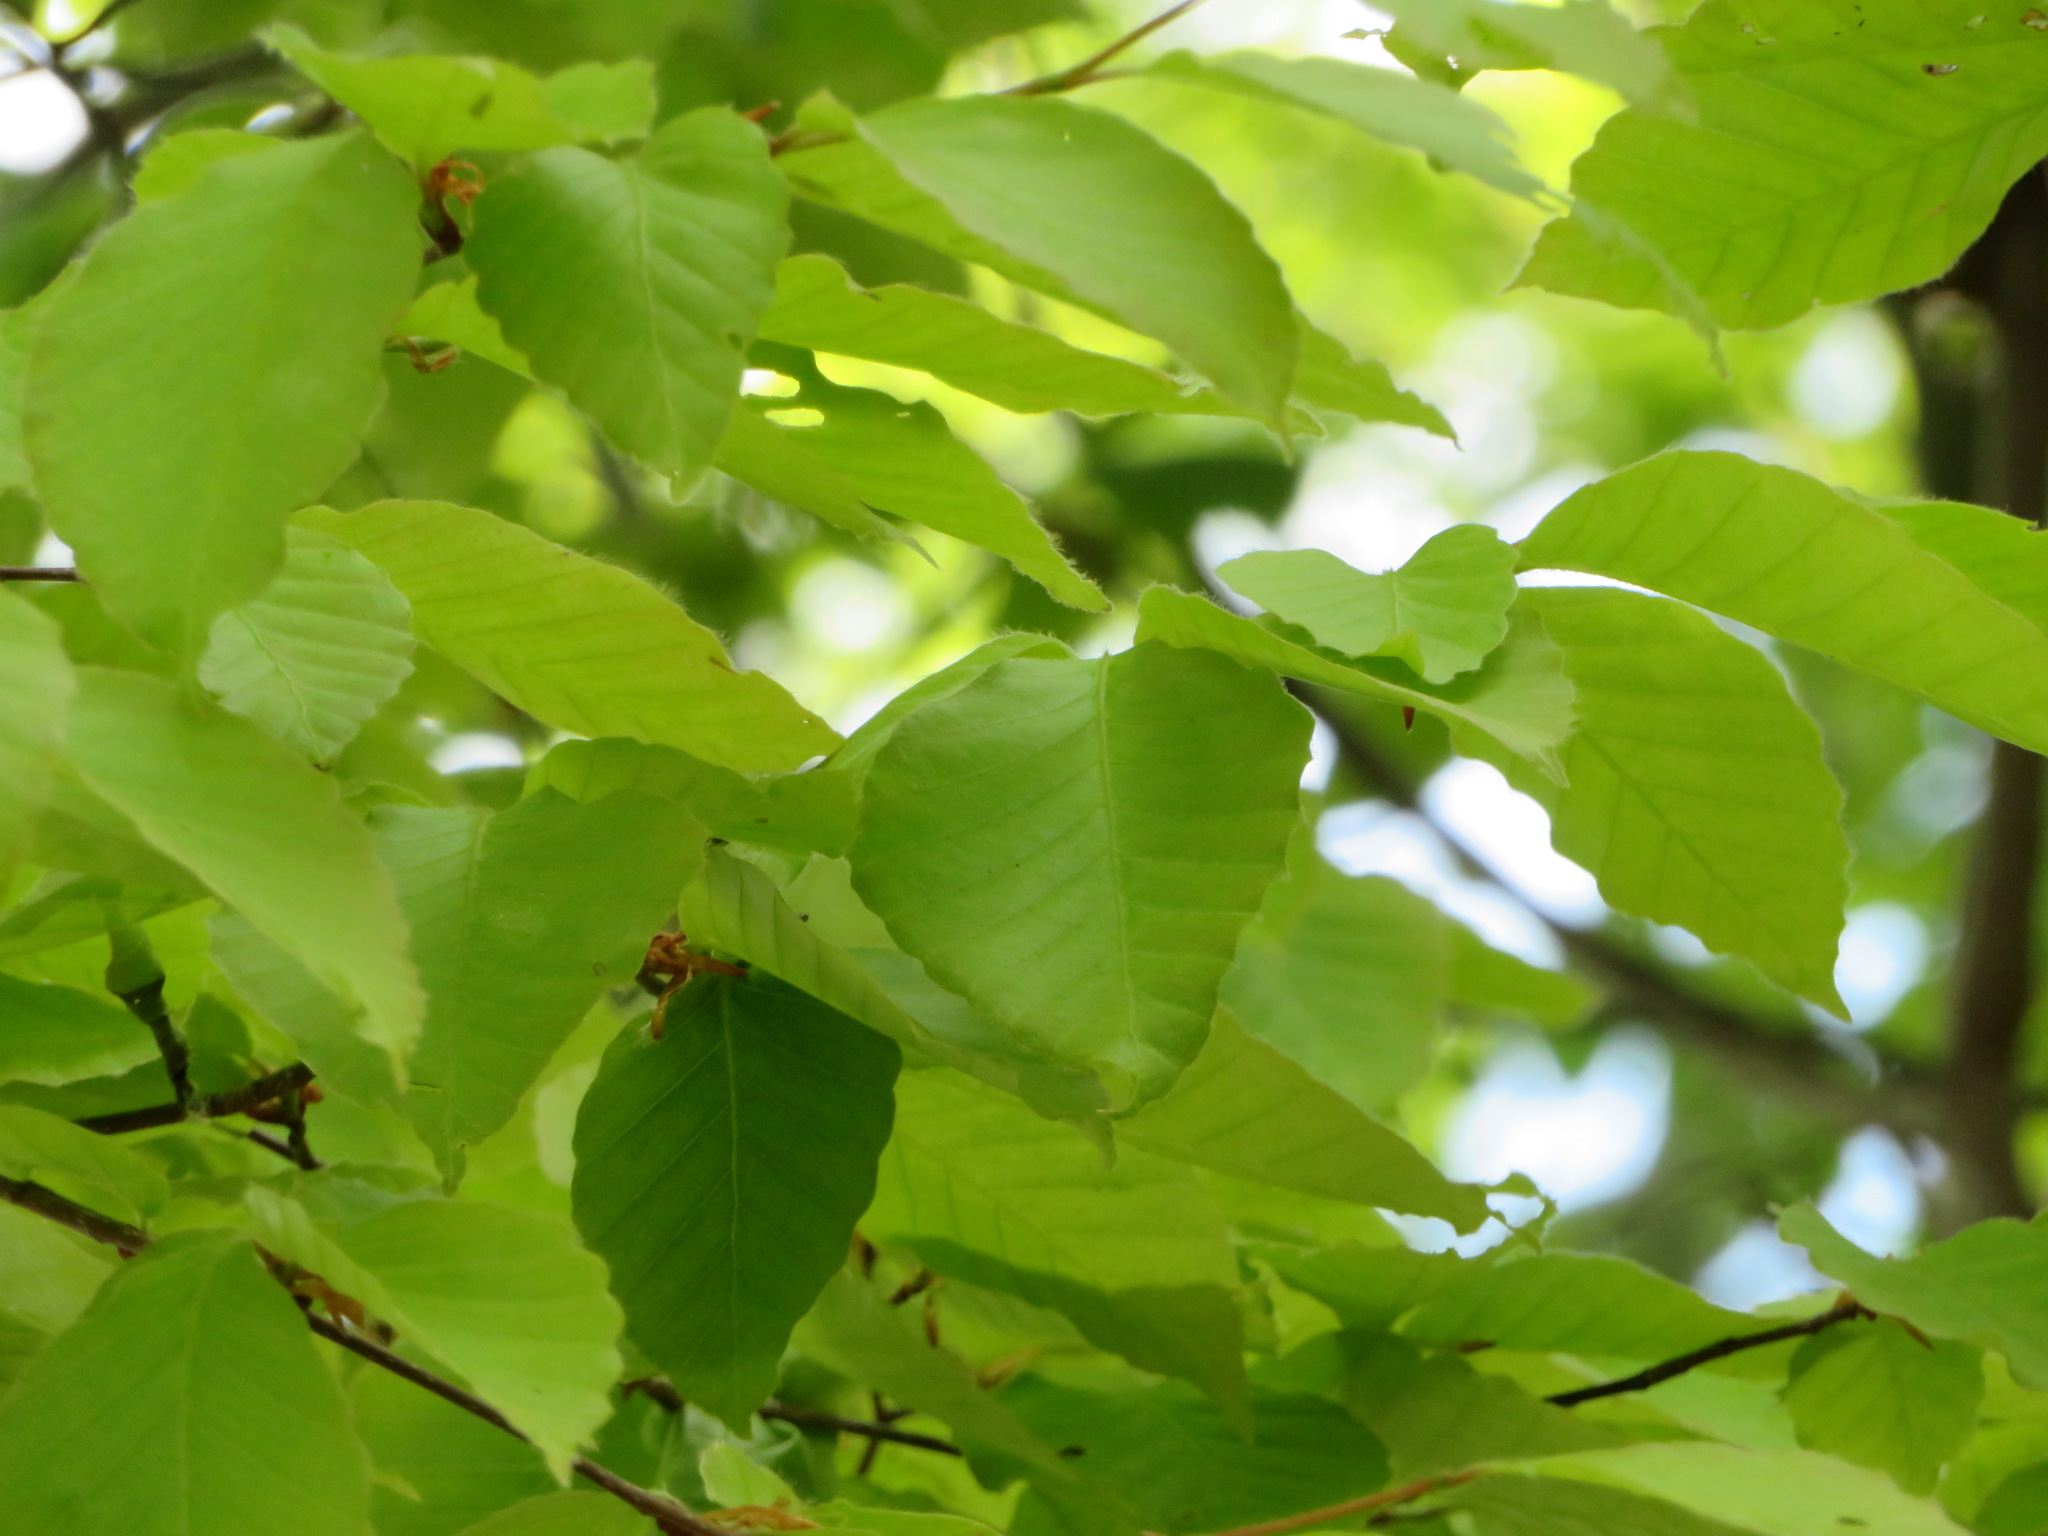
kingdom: Plantae
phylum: Tracheophyta
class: Magnoliopsida
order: Fagales
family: Fagaceae
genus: Fagus
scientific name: Fagus crenata
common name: Japanese beech
